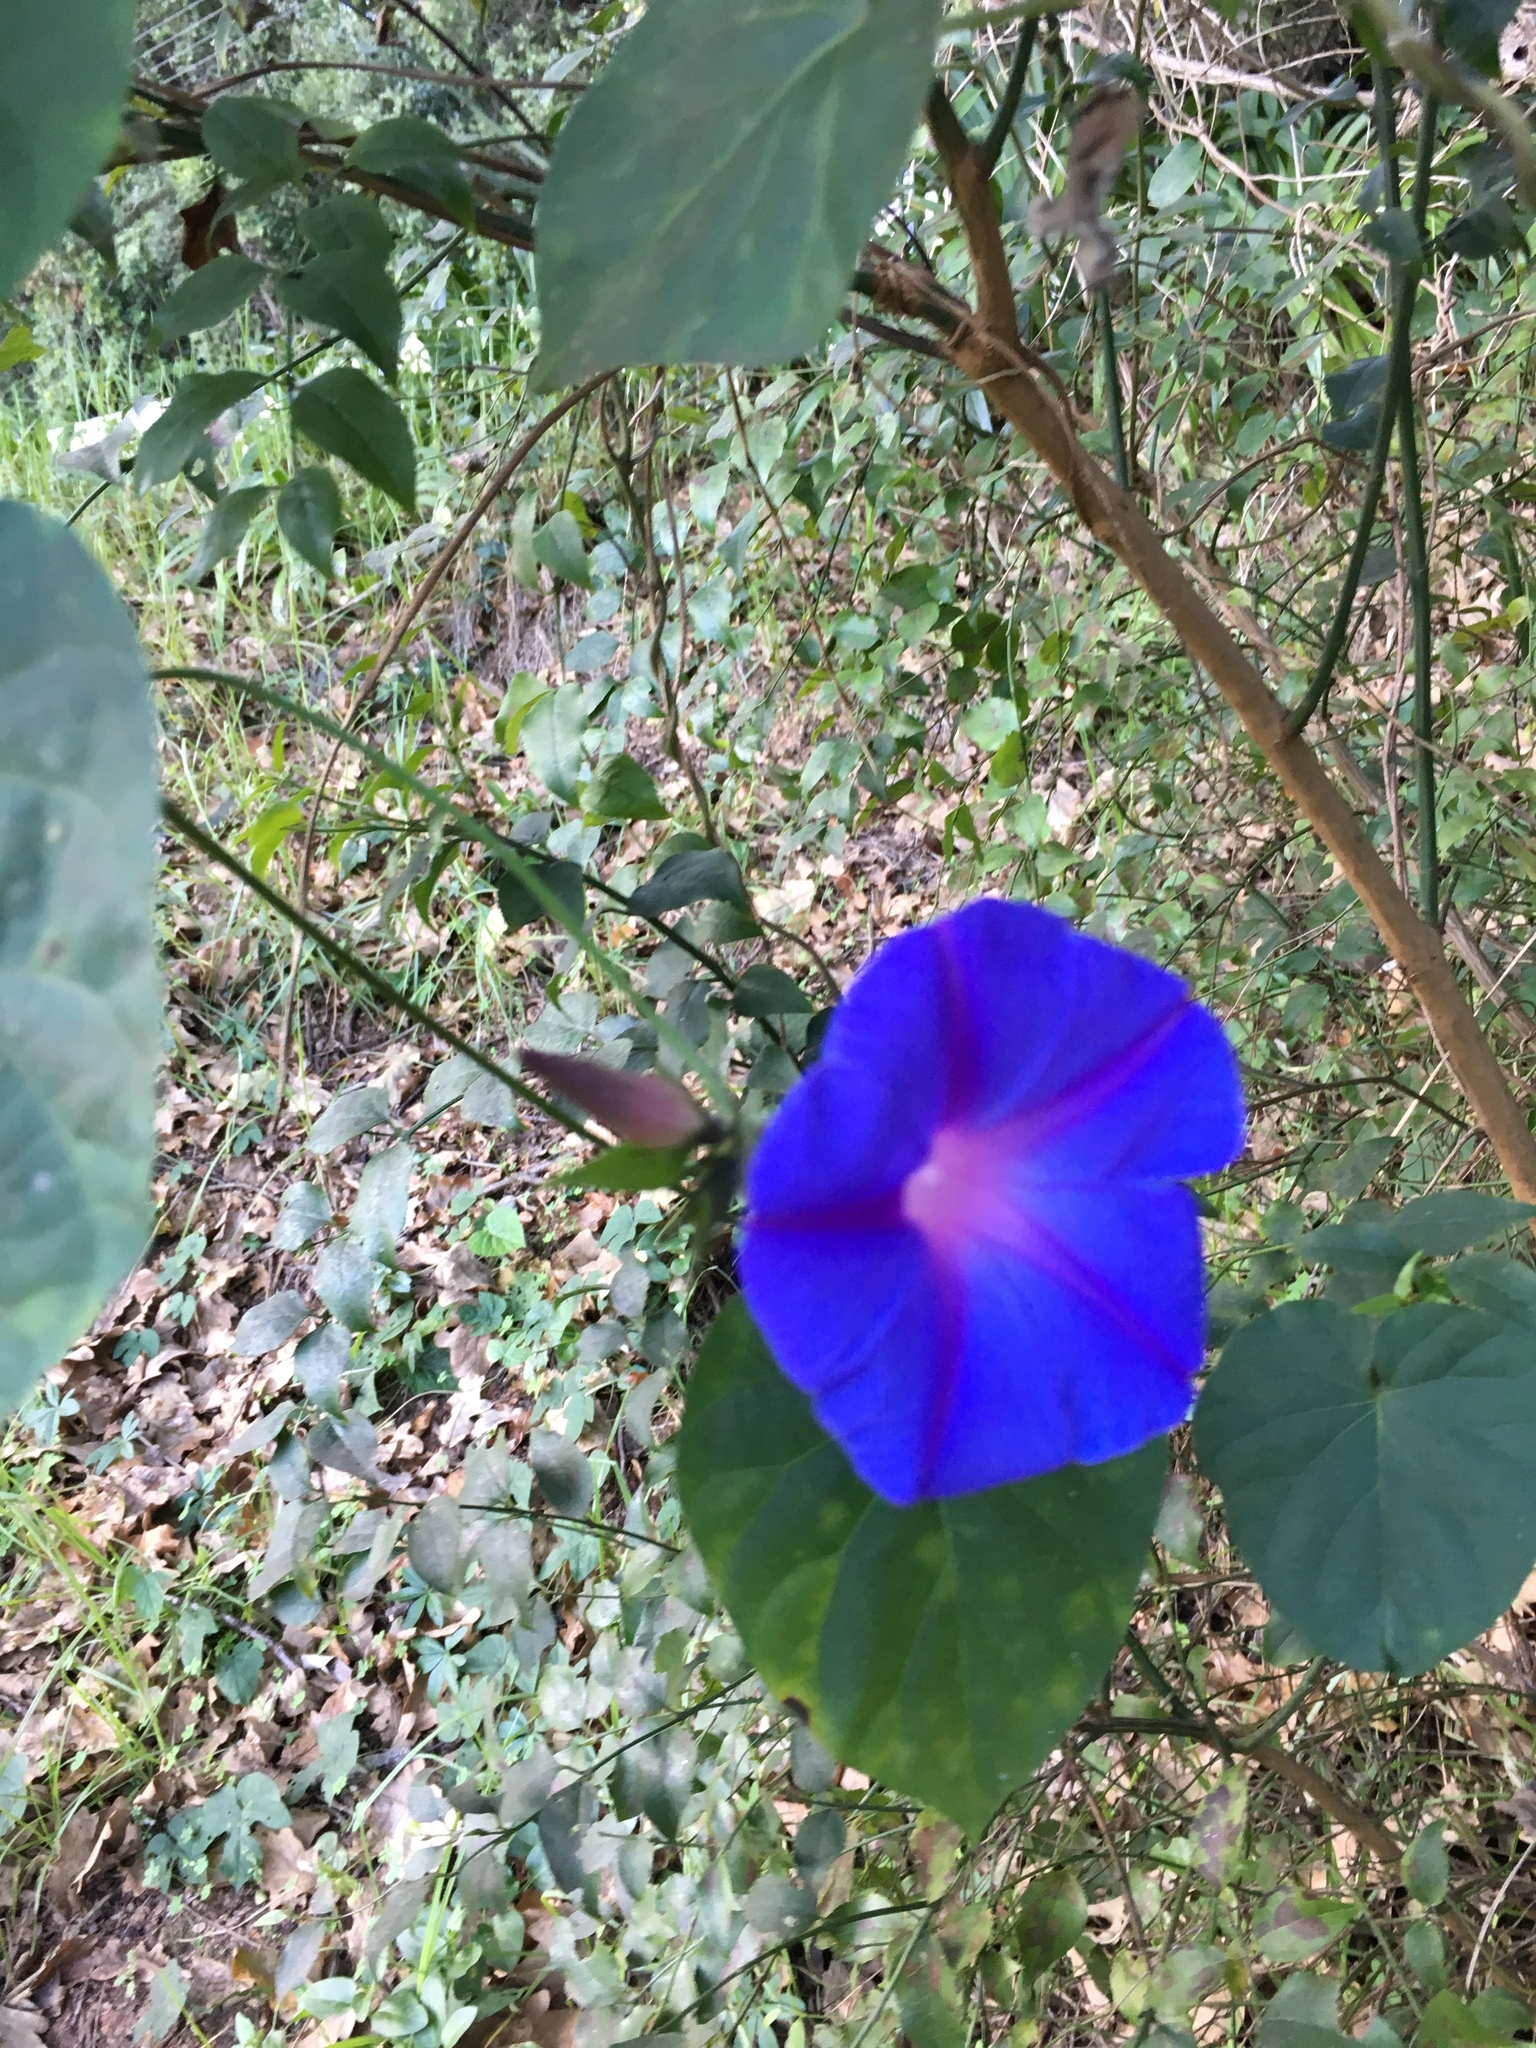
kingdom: Plantae
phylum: Tracheophyta
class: Magnoliopsida
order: Solanales
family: Convolvulaceae
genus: Ipomoea
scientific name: Ipomoea indica
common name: Blue dawnflower
